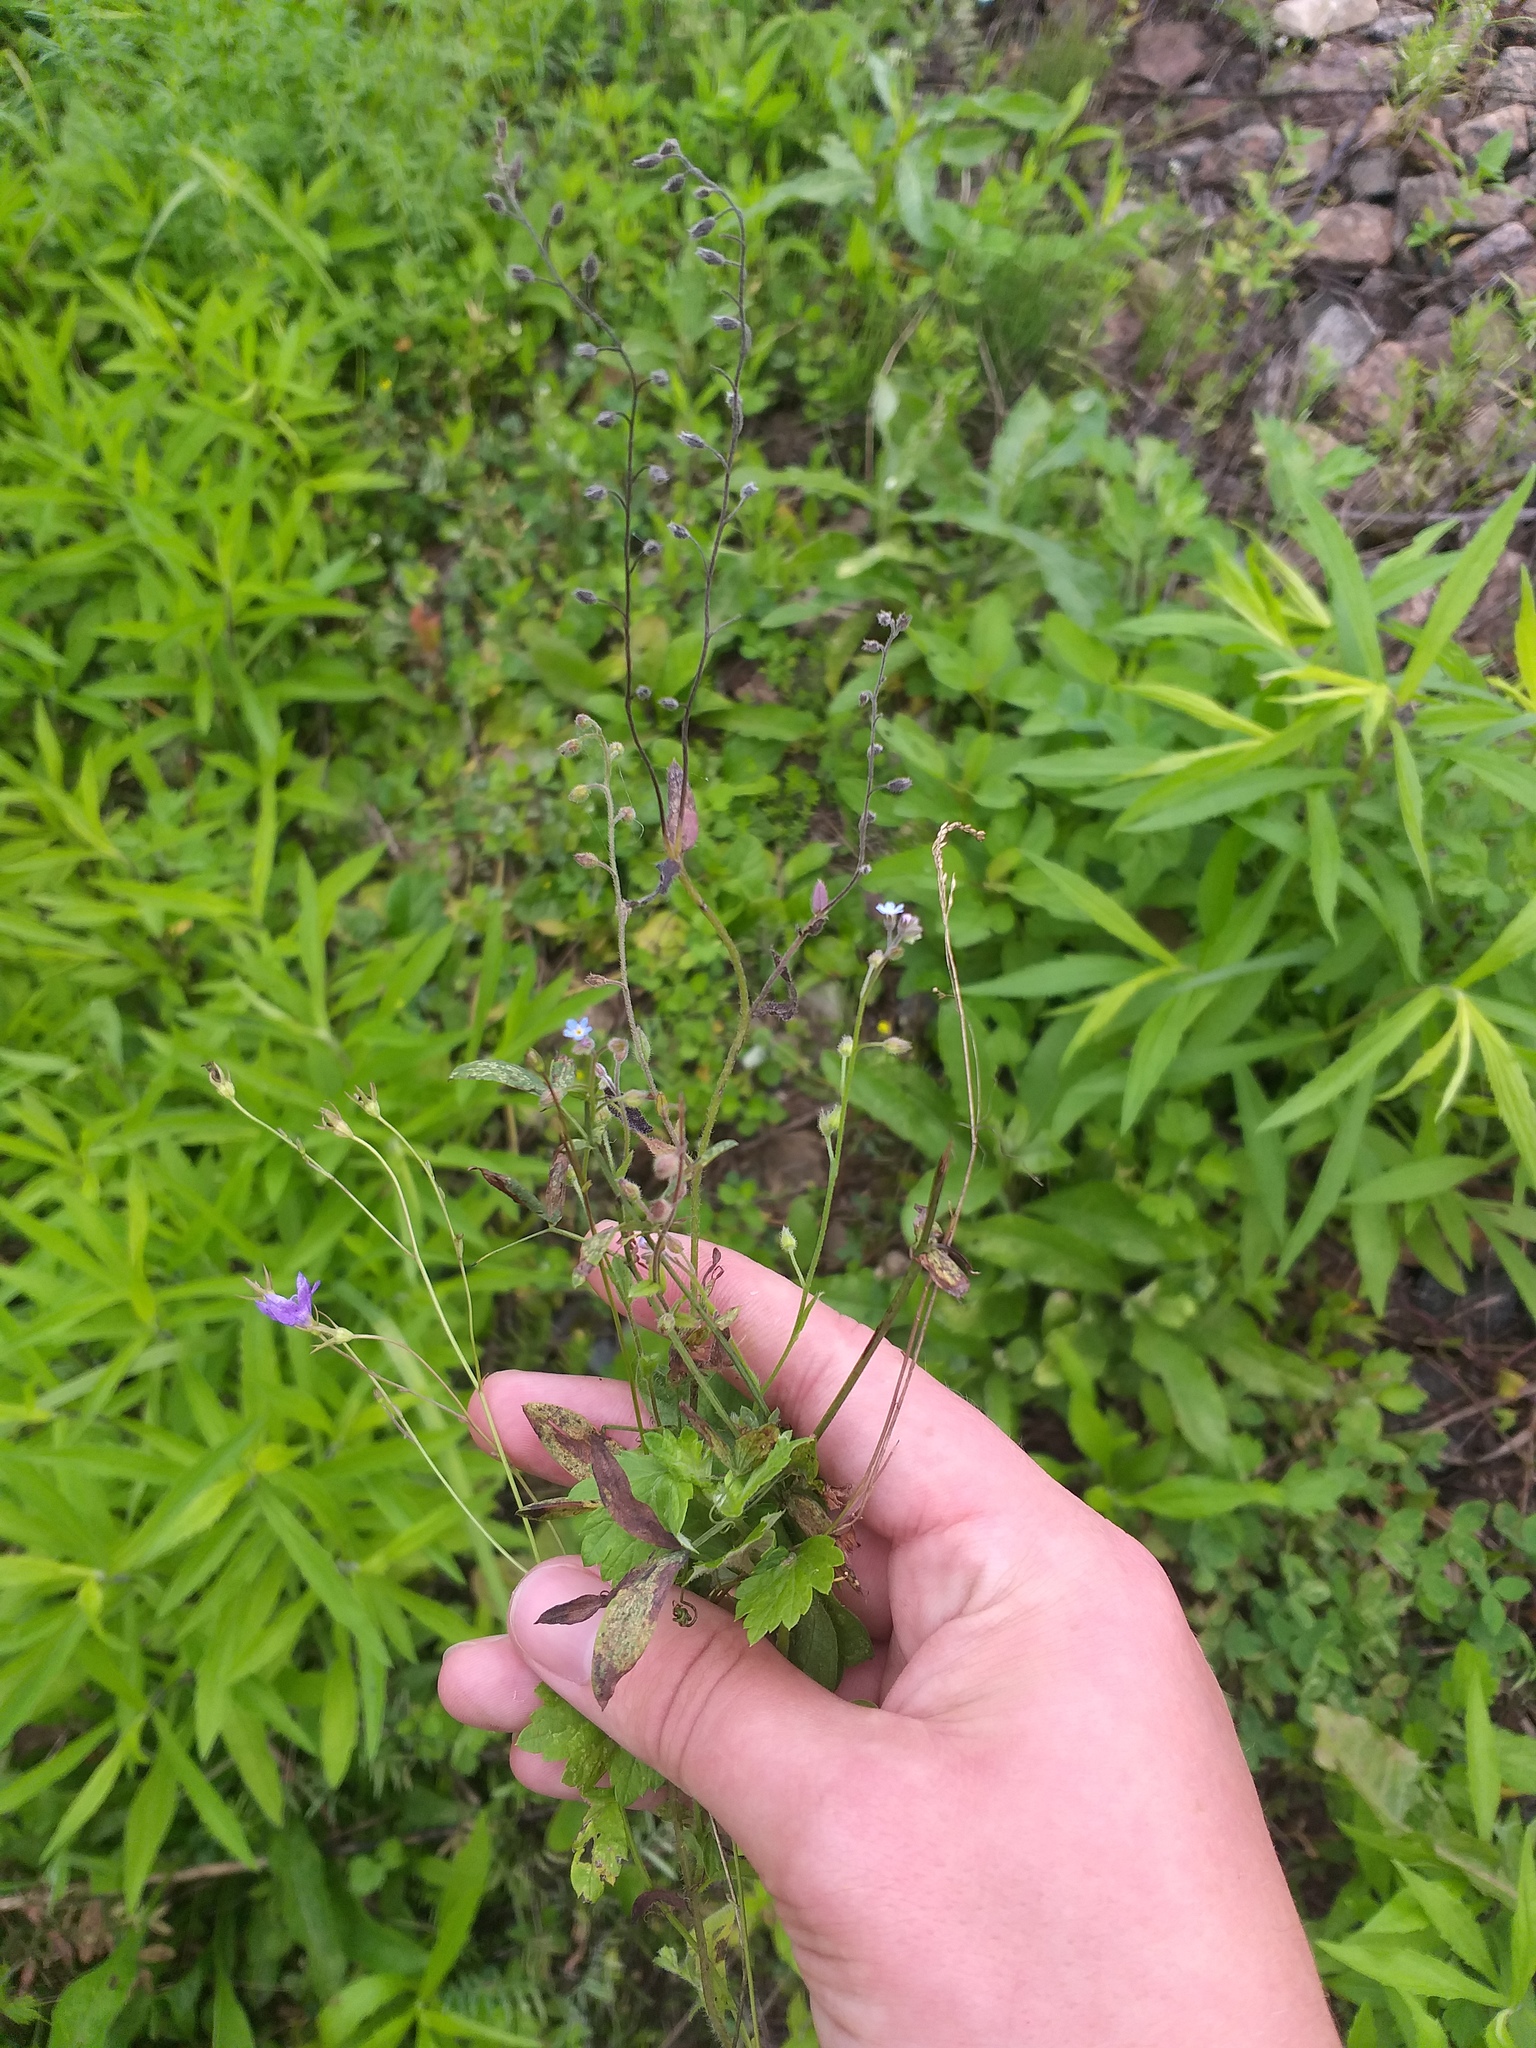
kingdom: Plantae
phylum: Tracheophyta
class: Magnoliopsida
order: Boraginales
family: Boraginaceae
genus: Myosotis
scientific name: Myosotis arvensis
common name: Field forget-me-not
